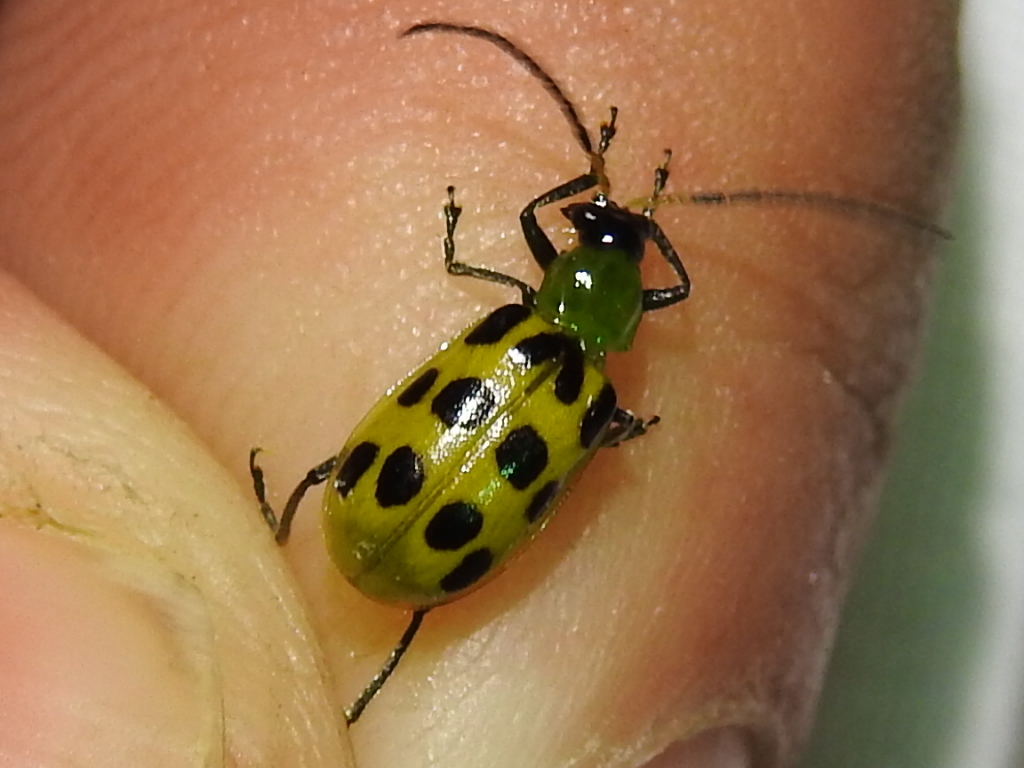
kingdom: Animalia
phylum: Arthropoda
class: Insecta
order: Coleoptera
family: Chrysomelidae
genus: Diabrotica
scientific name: Diabrotica undecimpunctata
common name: Spotted cucumber beetle
